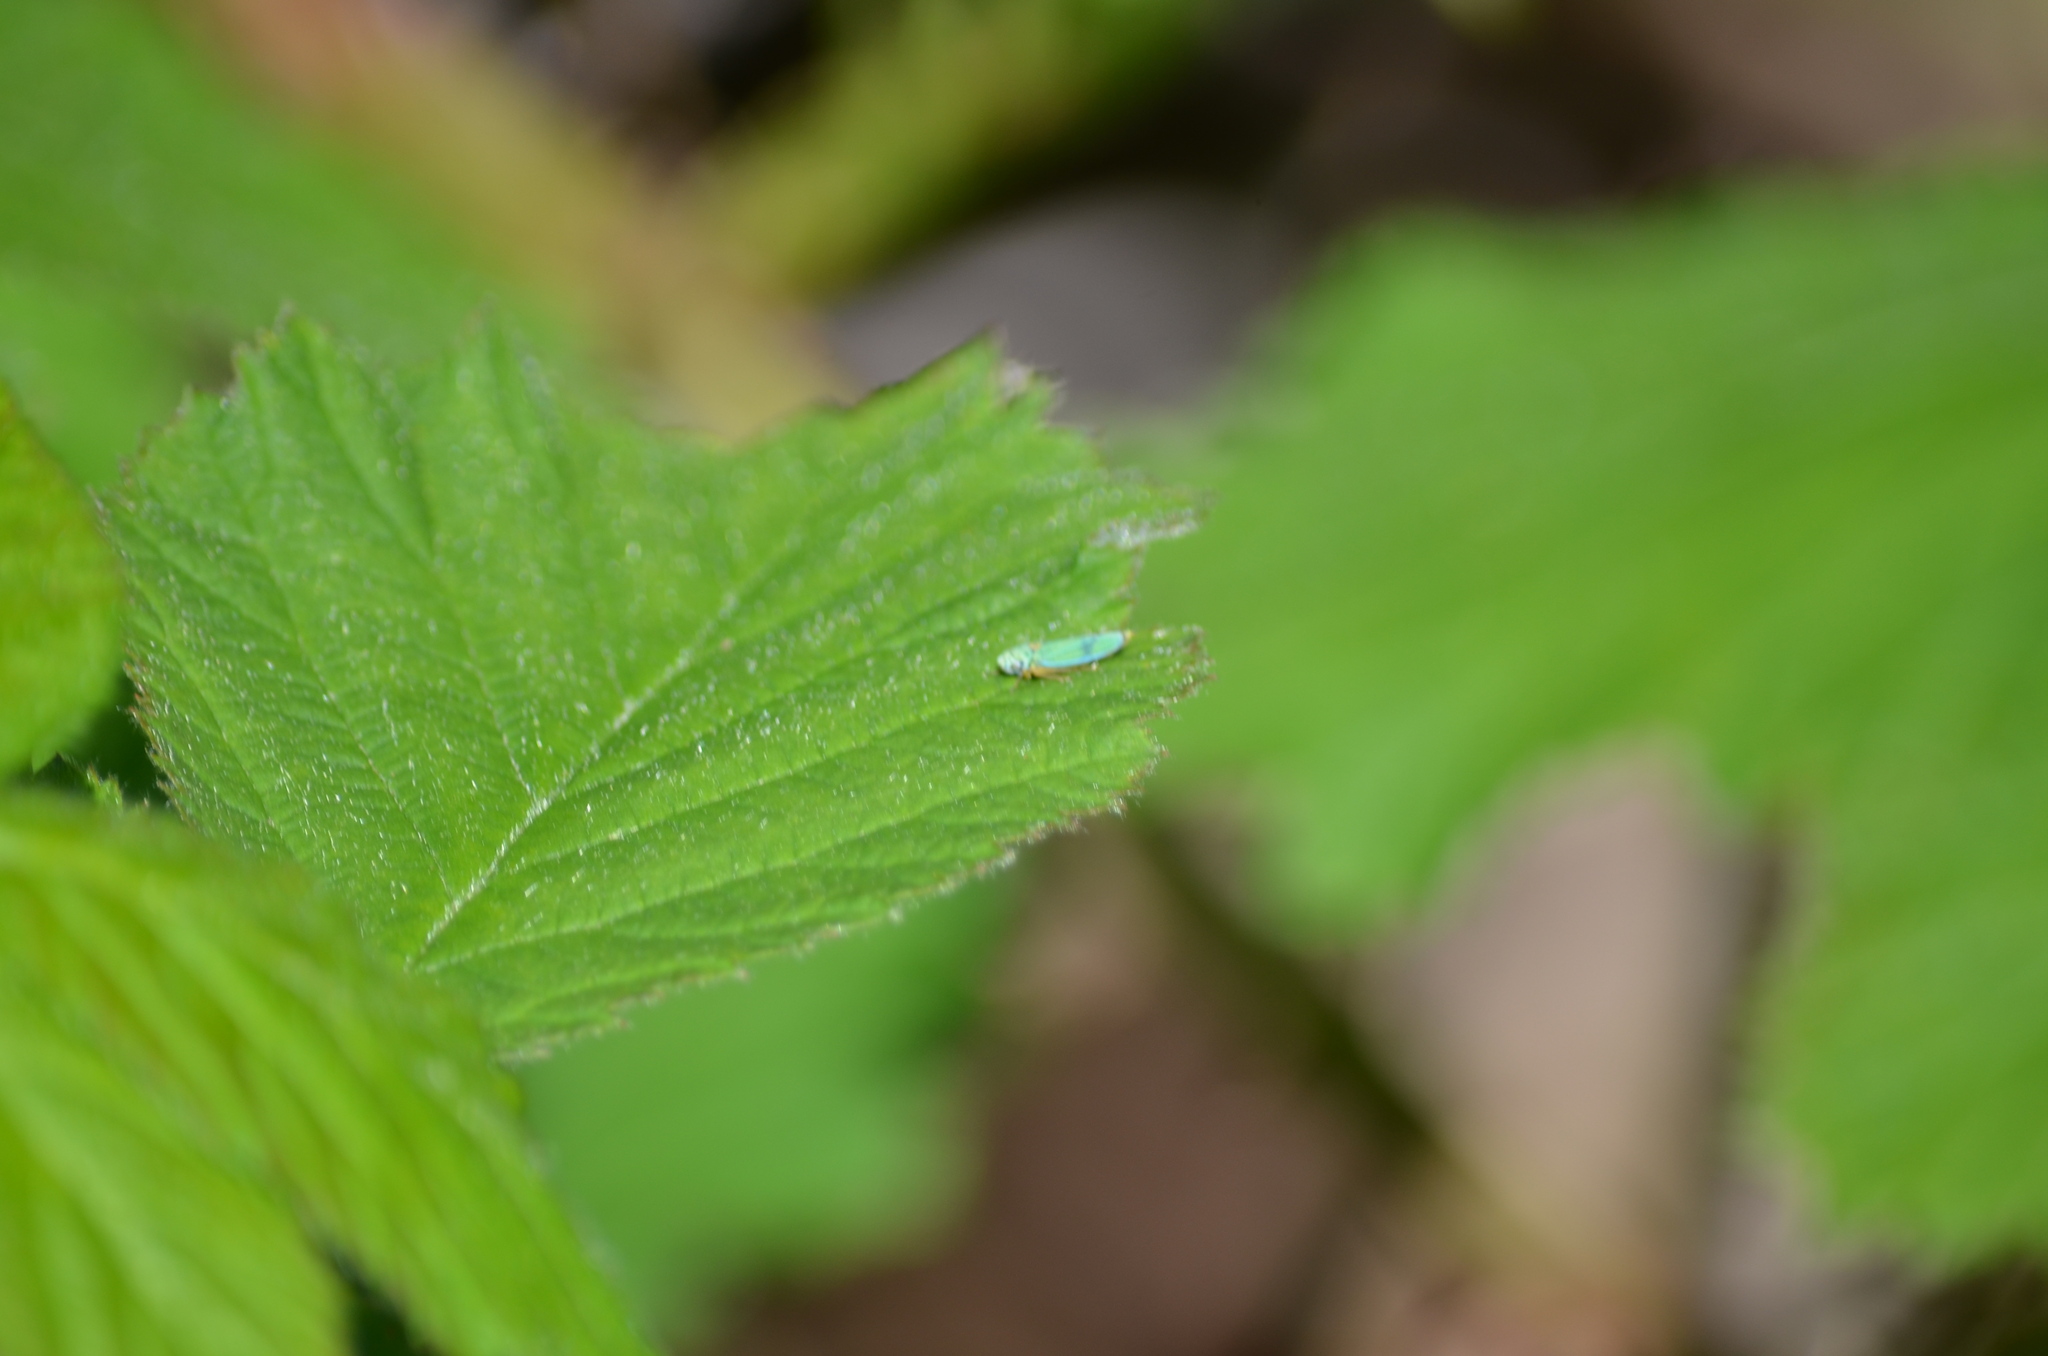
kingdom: Animalia
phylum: Arthropoda
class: Insecta
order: Hemiptera
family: Cicadellidae
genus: Graphocephala
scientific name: Graphocephala atropunctata
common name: Blue-green sharpshooter
